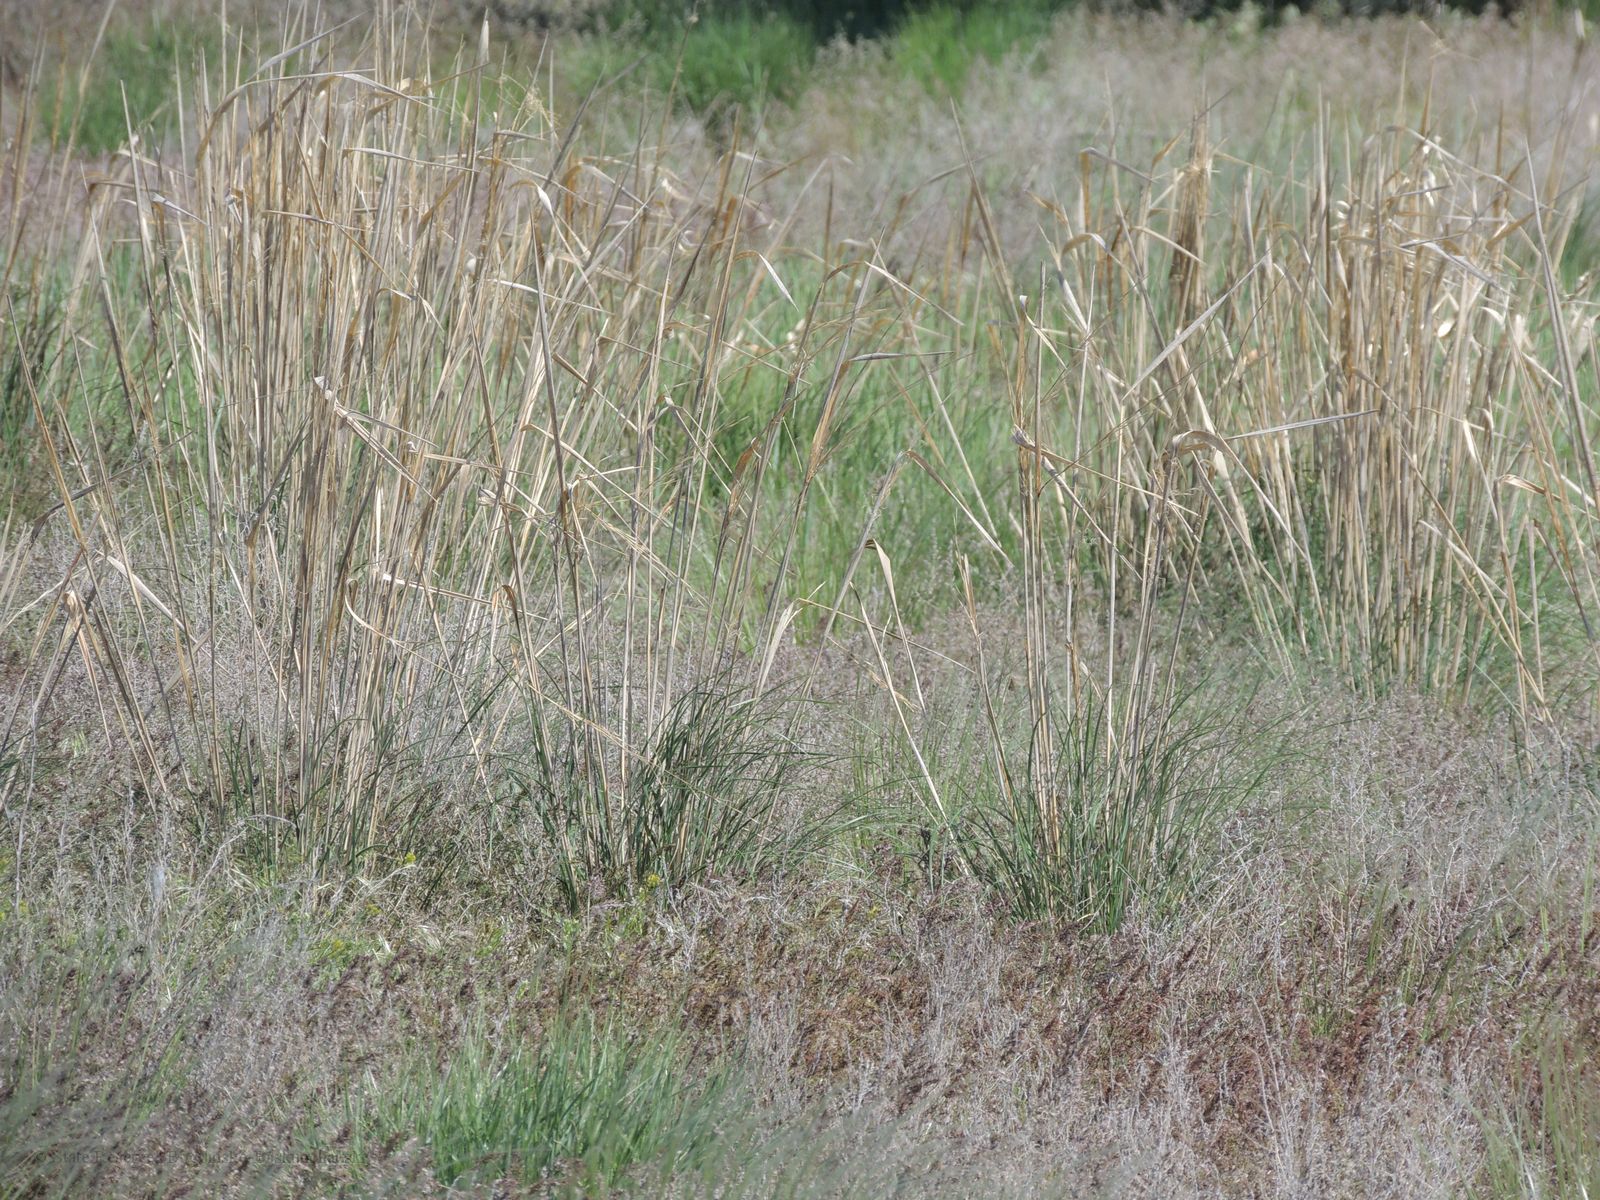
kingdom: Plantae
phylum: Tracheophyta
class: Liliopsida
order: Poales
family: Poaceae
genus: Stipa
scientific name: Stipa capillata
